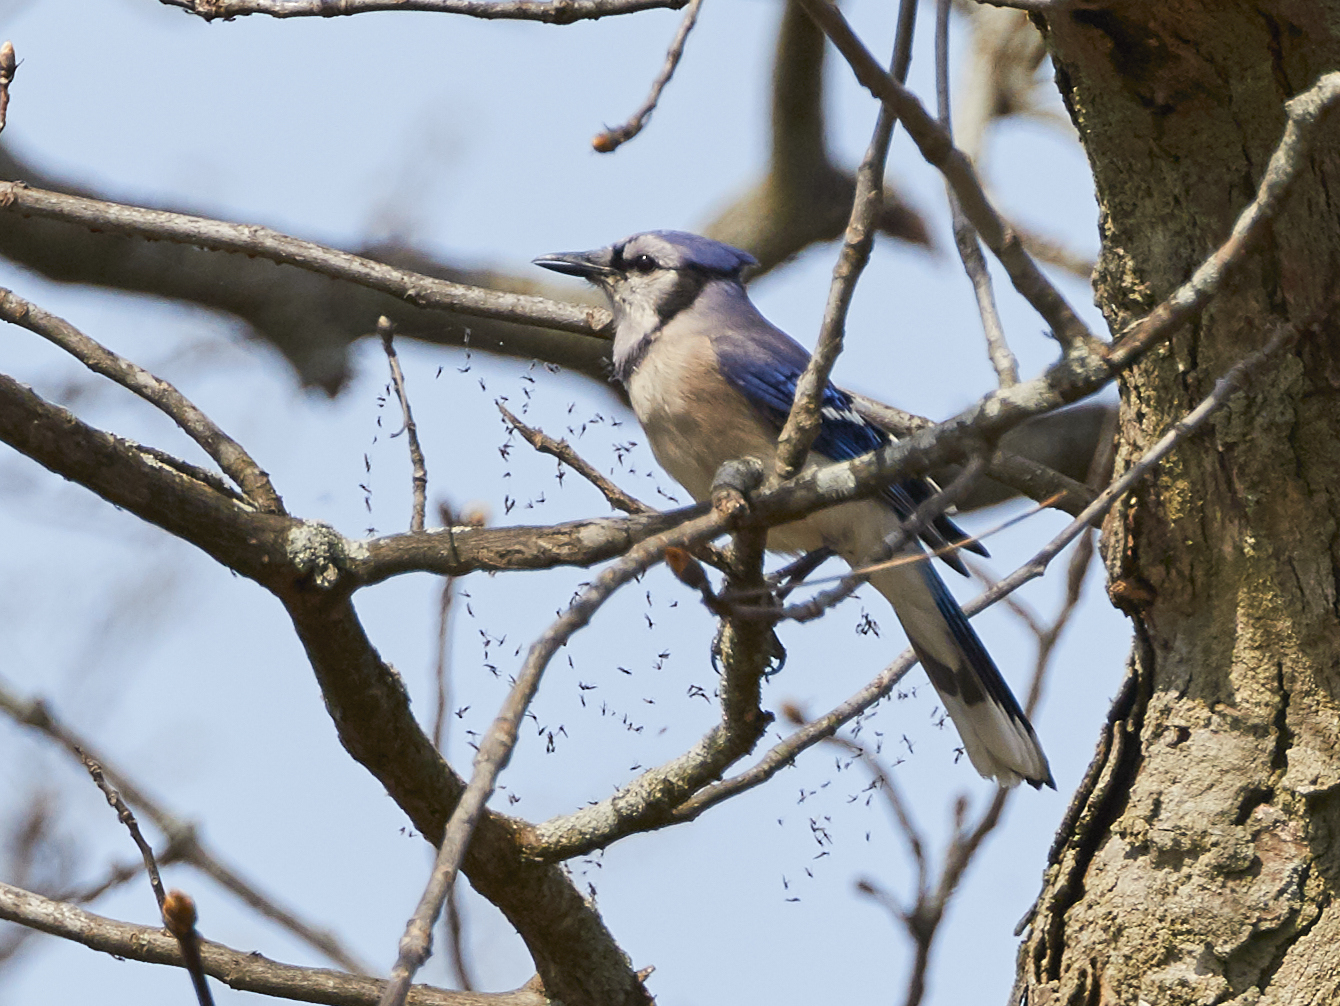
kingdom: Animalia
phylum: Chordata
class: Aves
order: Passeriformes
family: Corvidae
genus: Cyanocitta
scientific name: Cyanocitta cristata
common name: Blue jay
